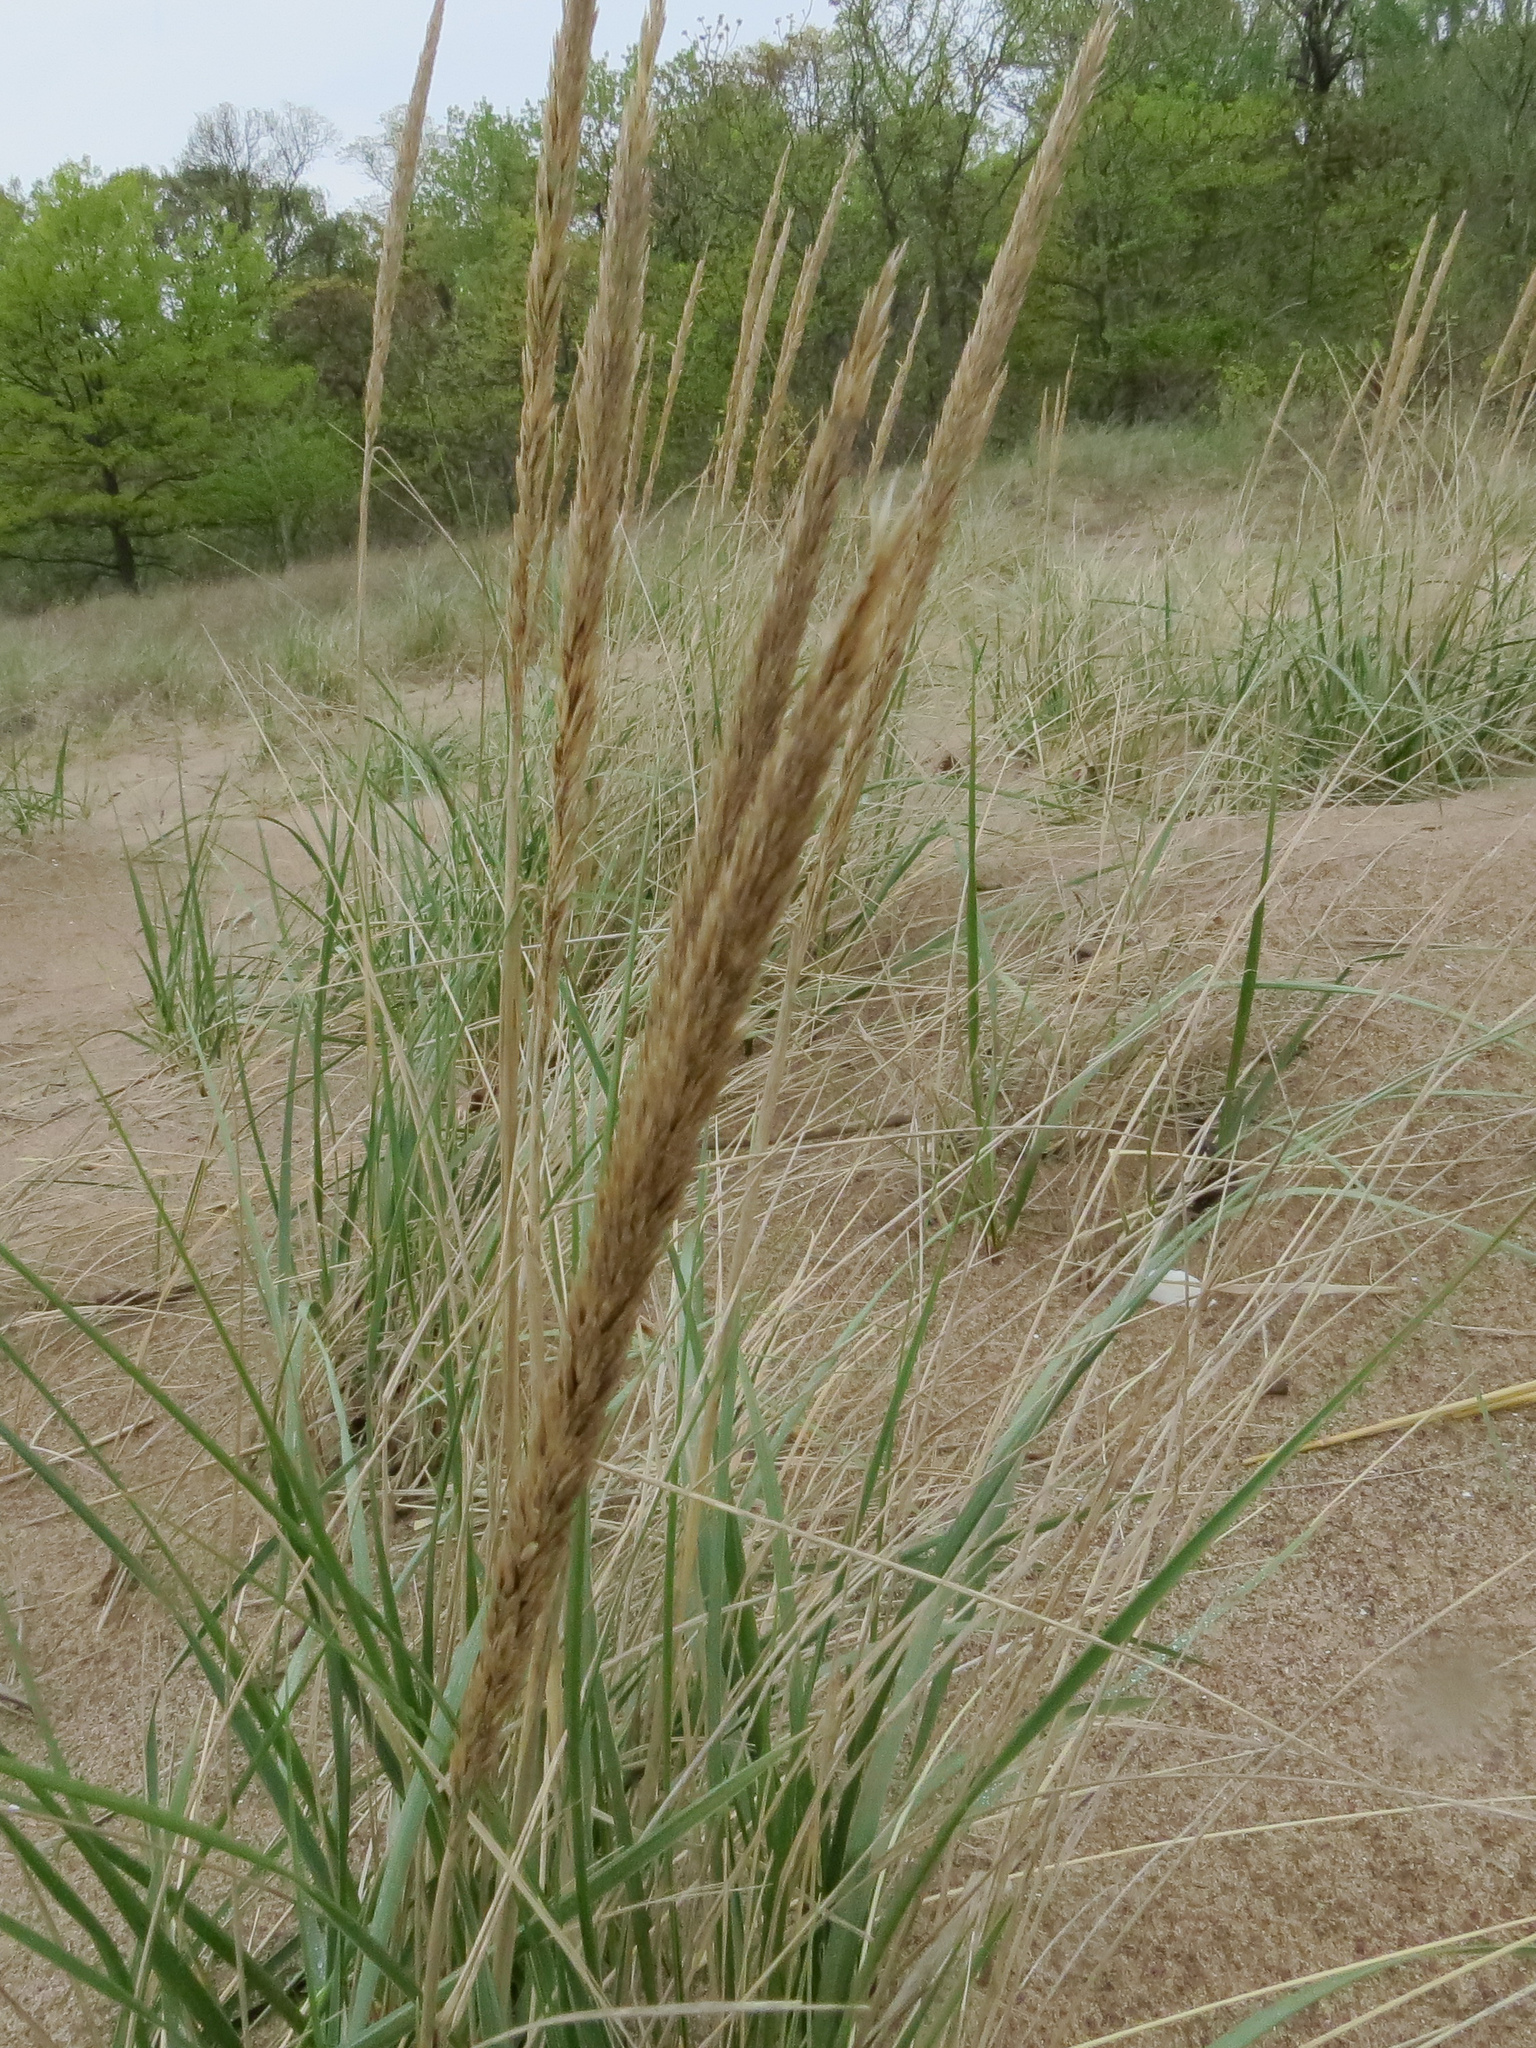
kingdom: Plantae
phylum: Tracheophyta
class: Liliopsida
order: Poales
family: Poaceae
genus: Calamagrostis
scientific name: Calamagrostis breviligulata
